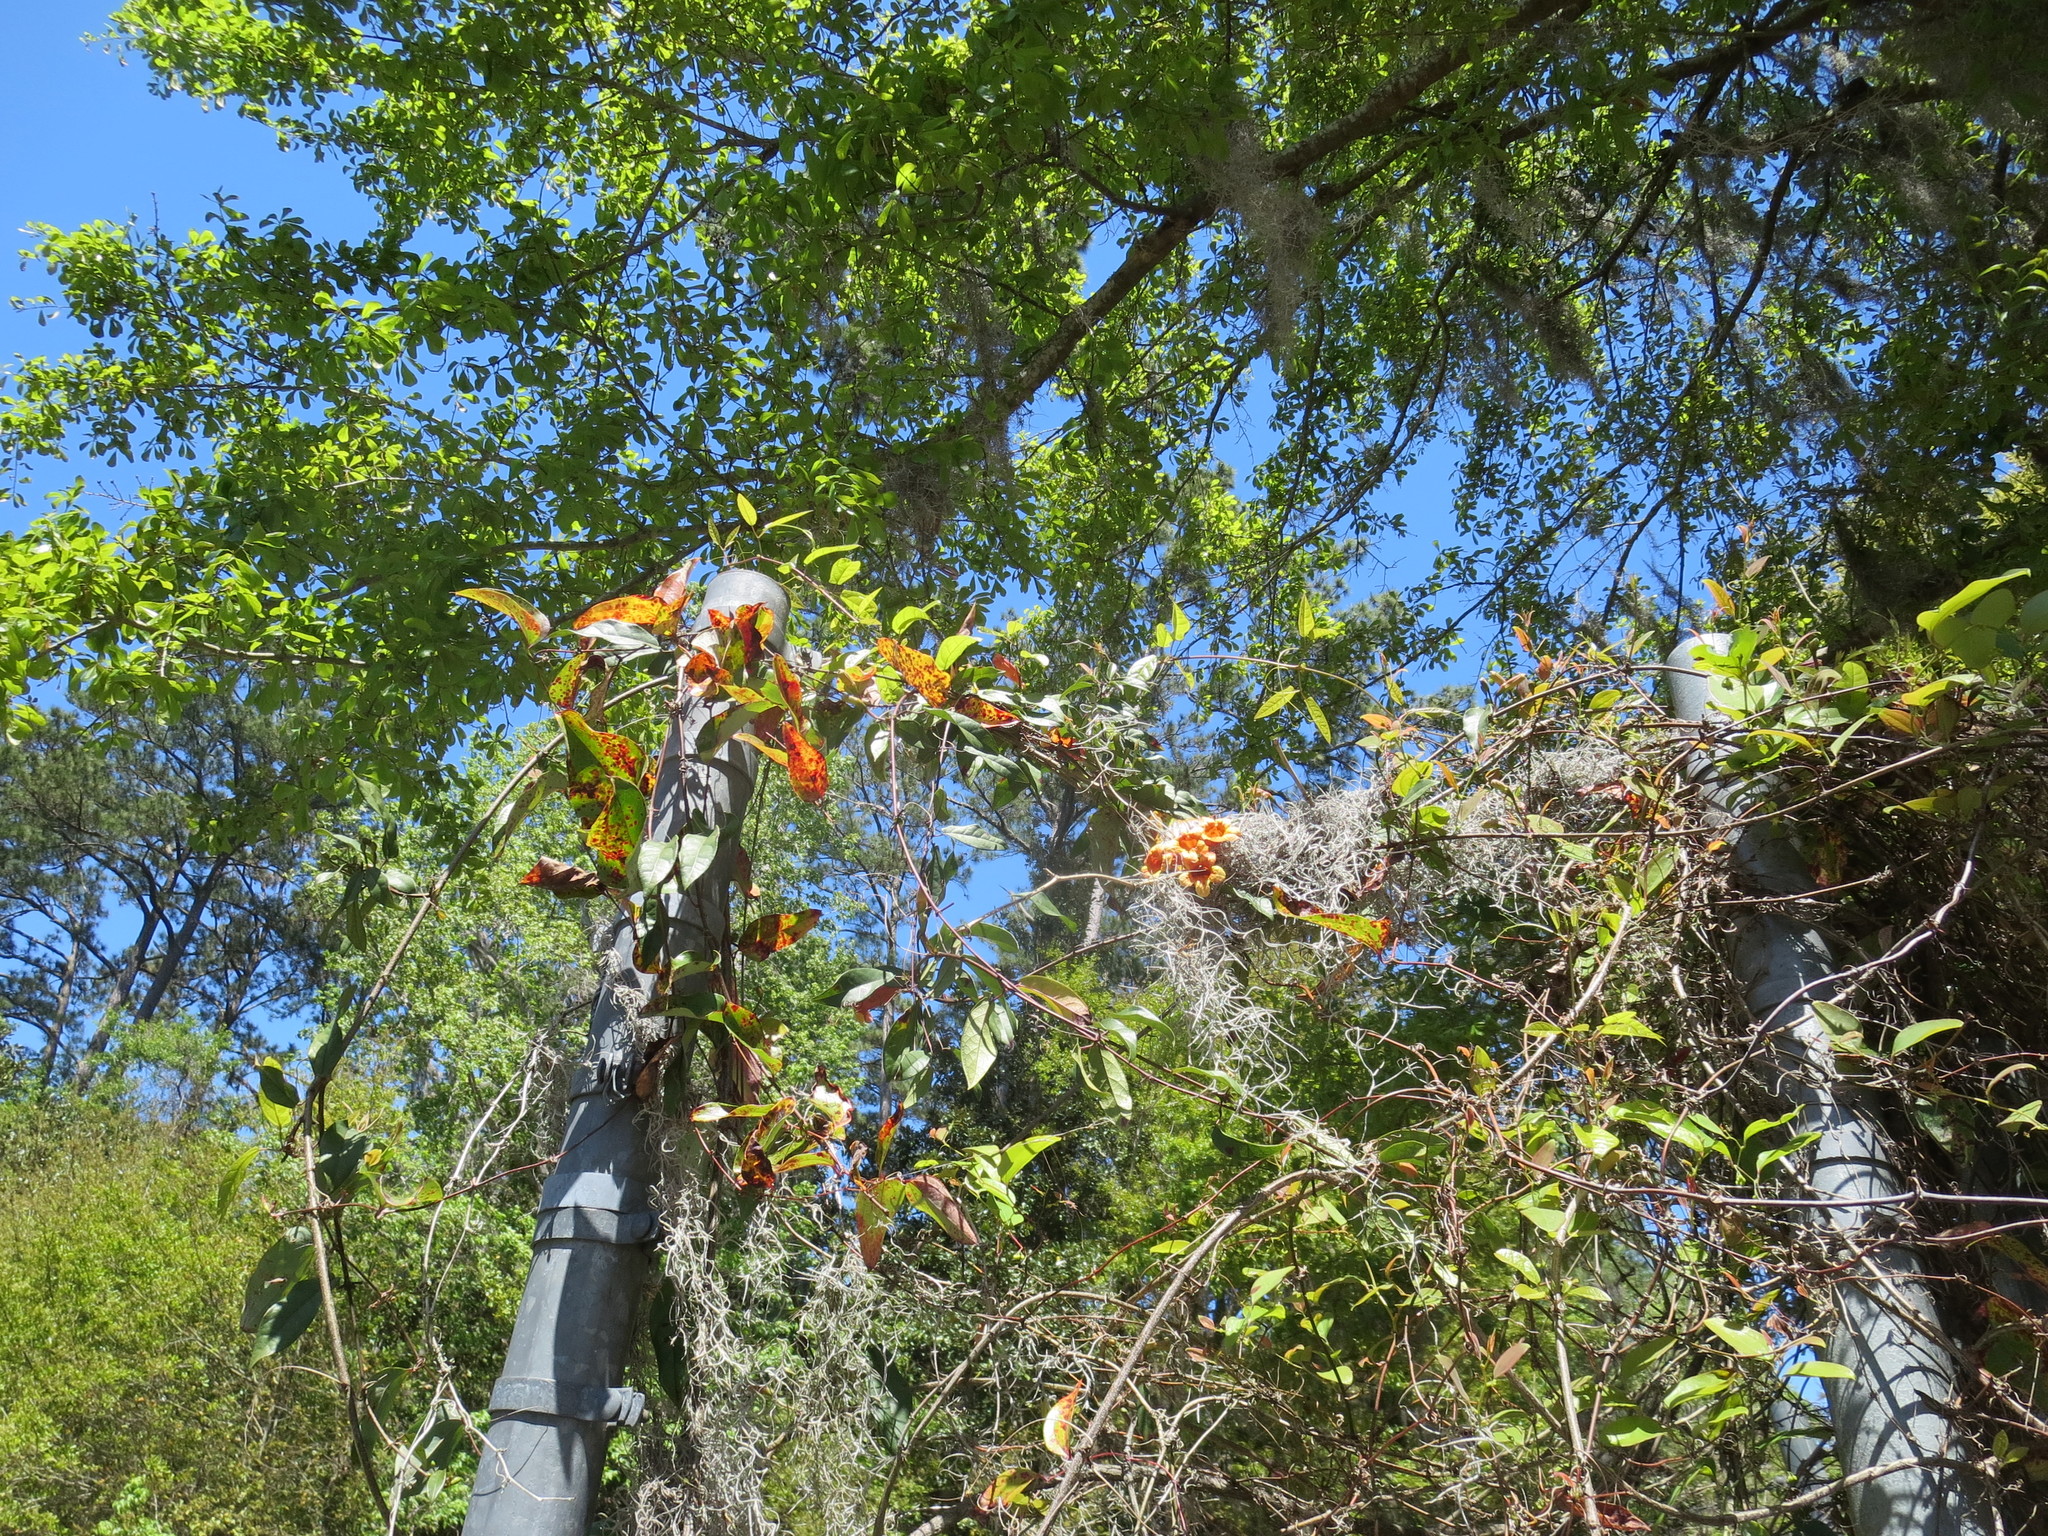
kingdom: Plantae
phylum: Tracheophyta
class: Magnoliopsida
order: Lamiales
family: Bignoniaceae
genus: Bignonia
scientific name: Bignonia capreolata
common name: Crossvine
